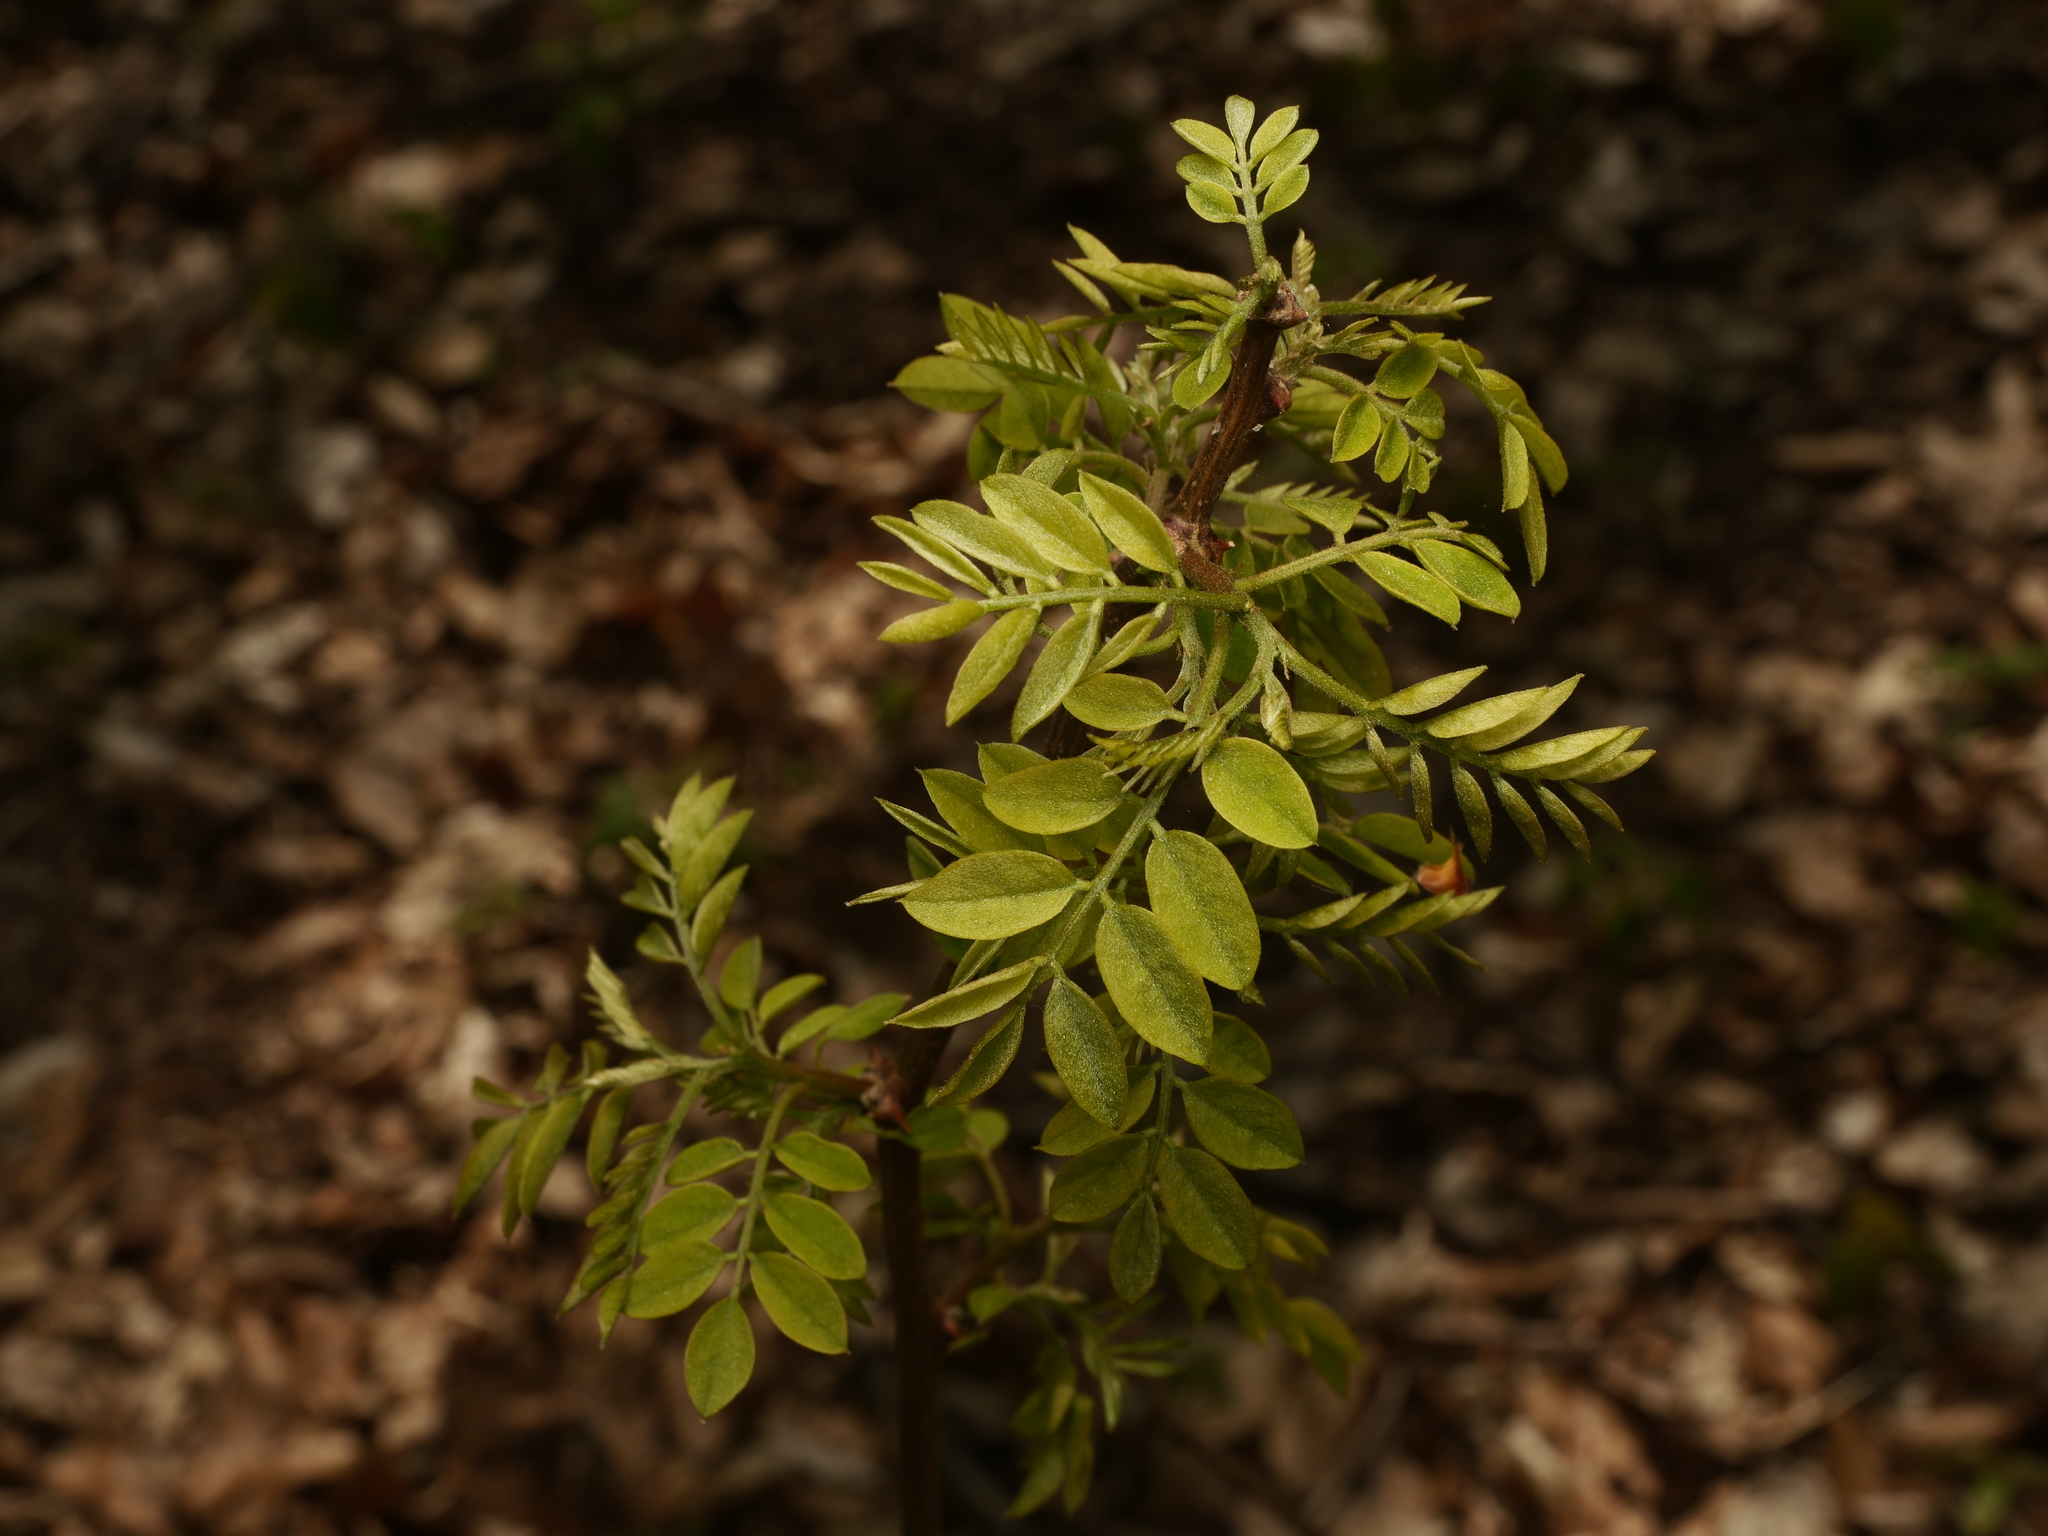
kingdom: Plantae
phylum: Tracheophyta
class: Magnoliopsida
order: Fabales
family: Fabaceae
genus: Robinia
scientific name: Robinia pseudoacacia
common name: Black locust
